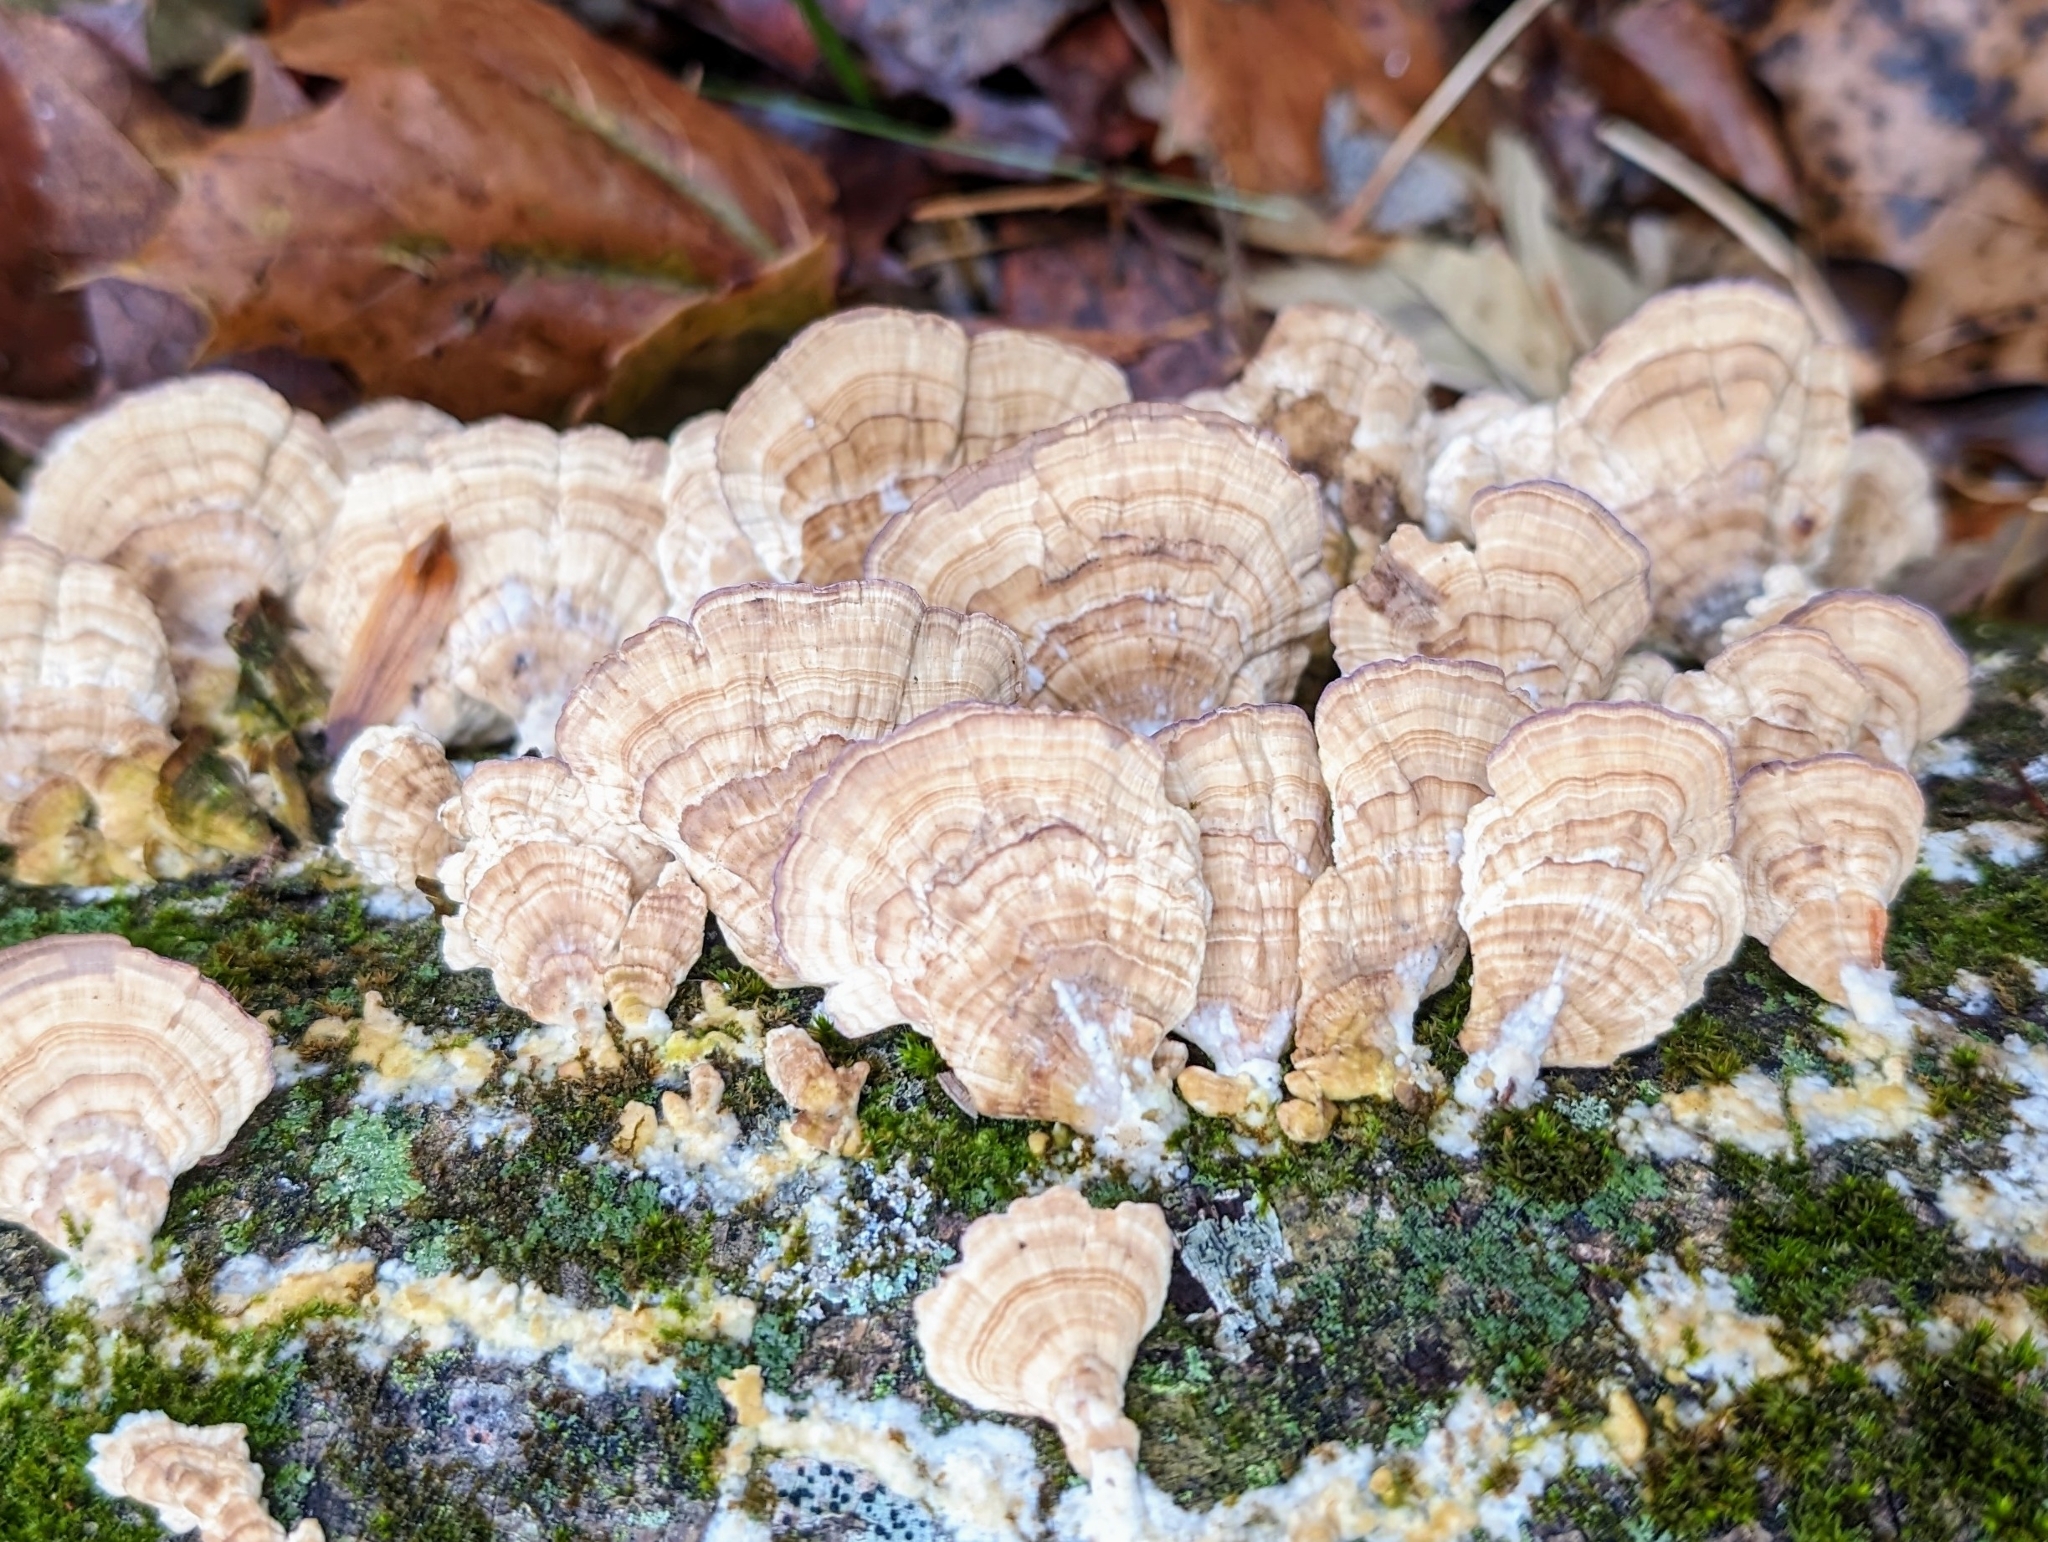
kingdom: Fungi
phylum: Basidiomycota
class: Agaricomycetes
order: Hymenochaetales
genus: Trichaptum
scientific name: Trichaptum biforme
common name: Violet-toothed polypore
